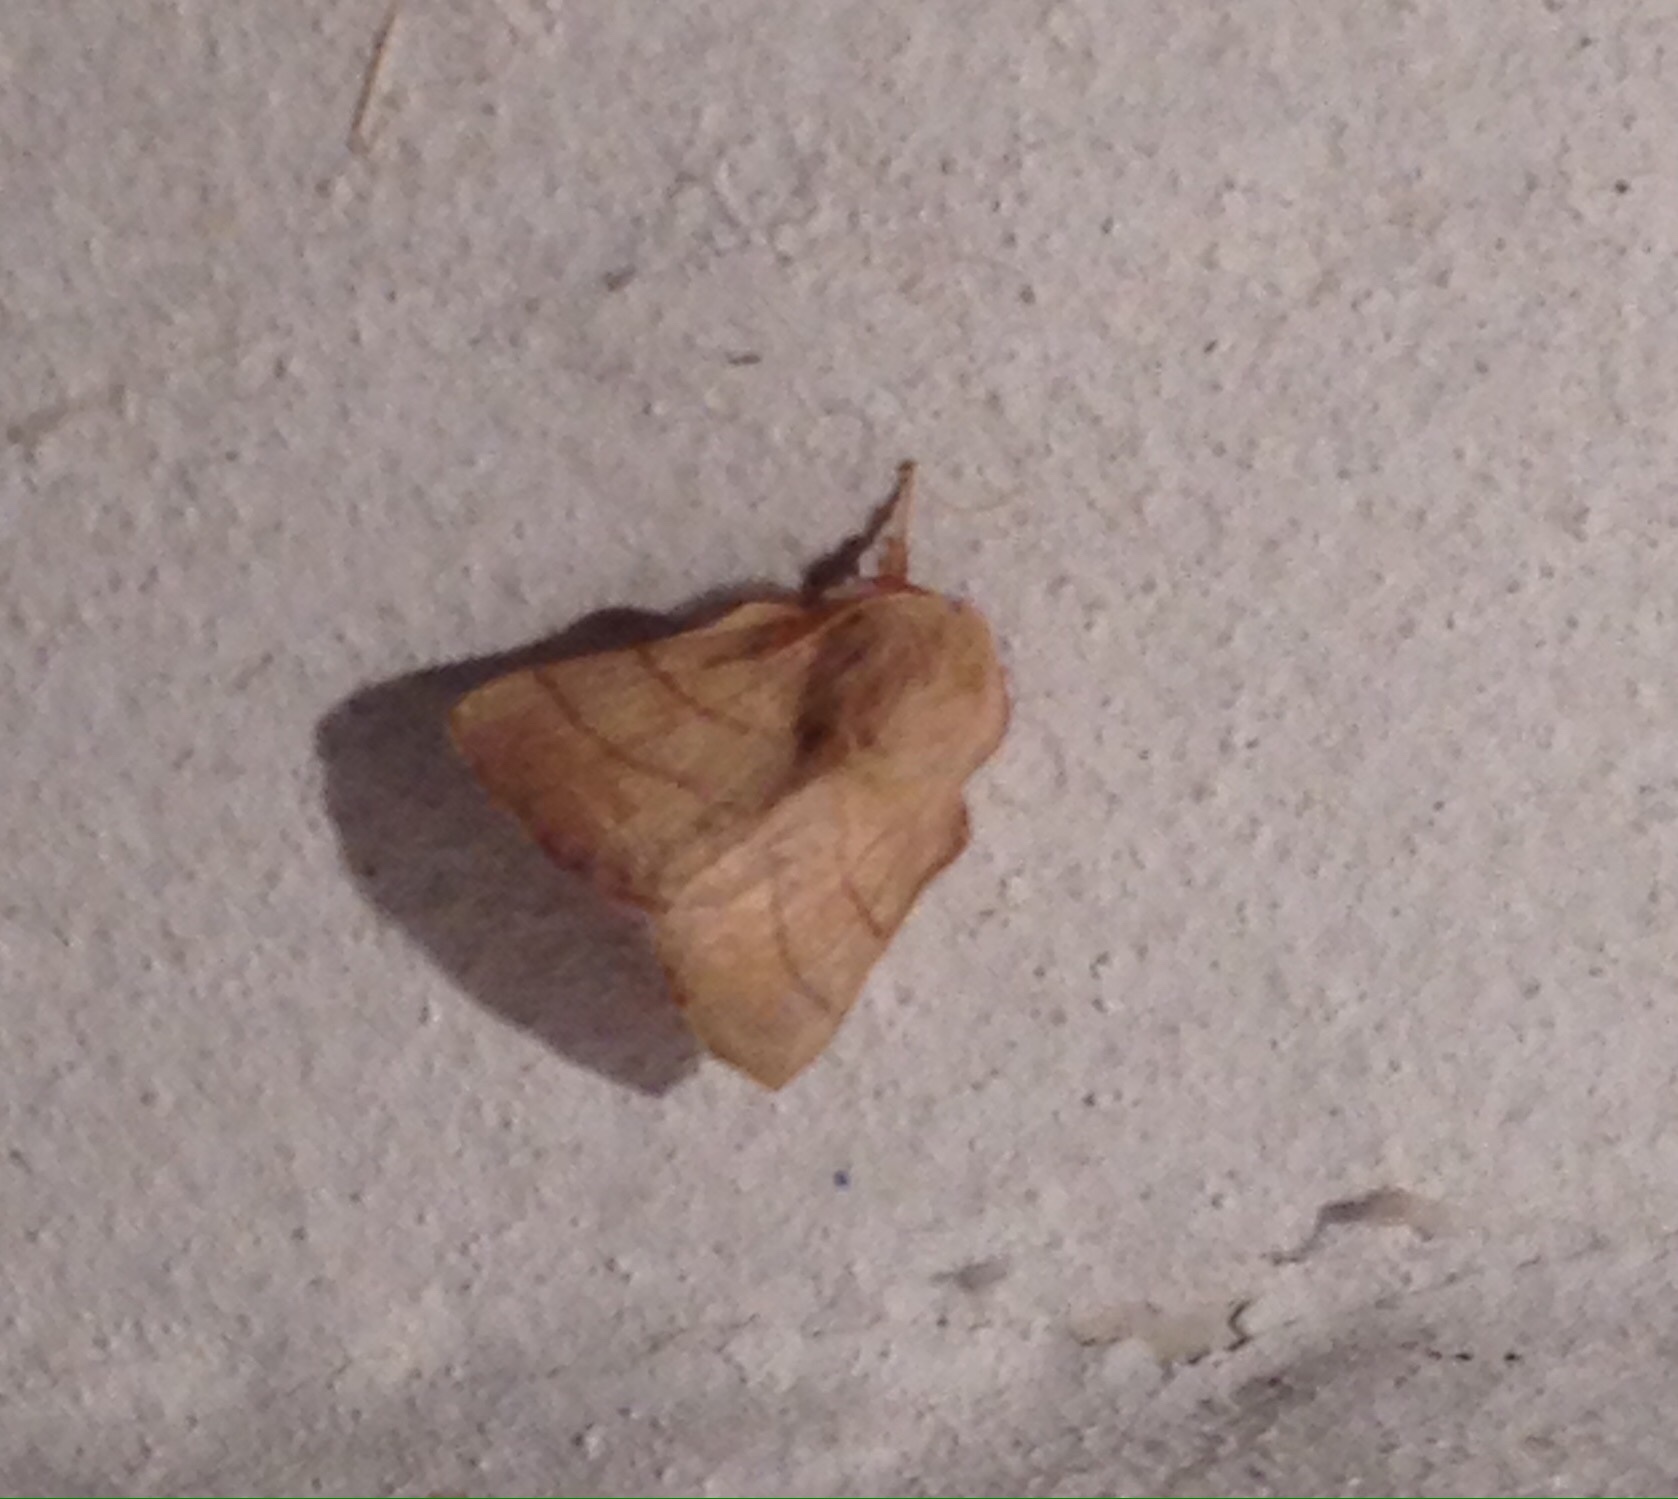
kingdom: Animalia
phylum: Arthropoda
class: Insecta
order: Lepidoptera
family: Lasiocampidae
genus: Malacosoma
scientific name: Malacosoma neustria
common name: The lackey
